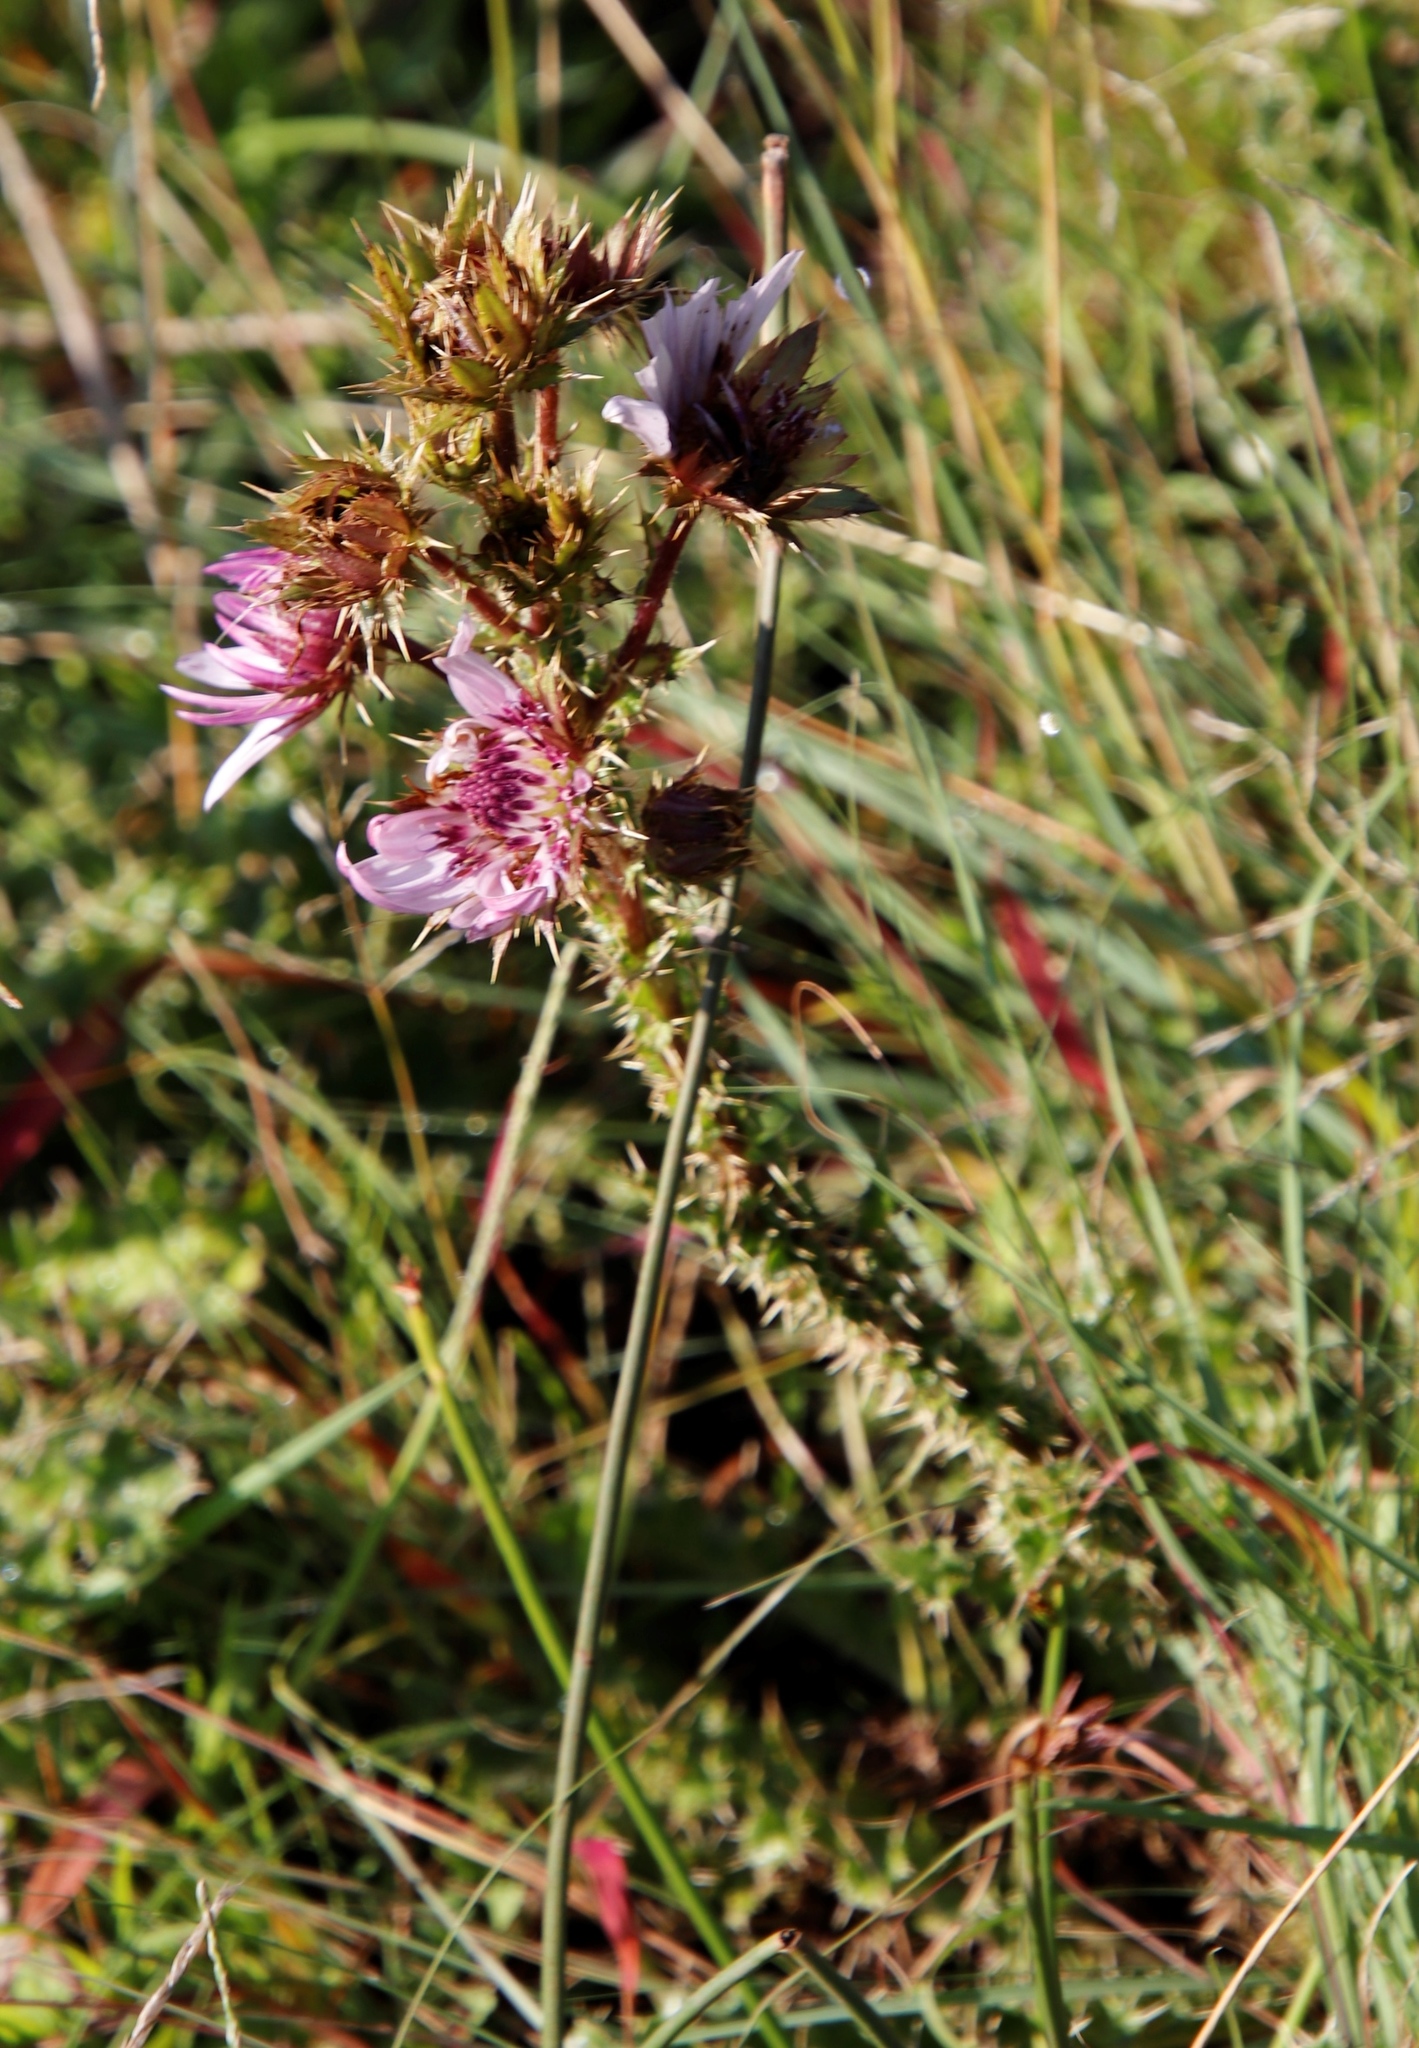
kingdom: Plantae
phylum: Tracheophyta
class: Magnoliopsida
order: Asterales
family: Asteraceae
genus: Berkheya
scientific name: Berkheya purpurea
